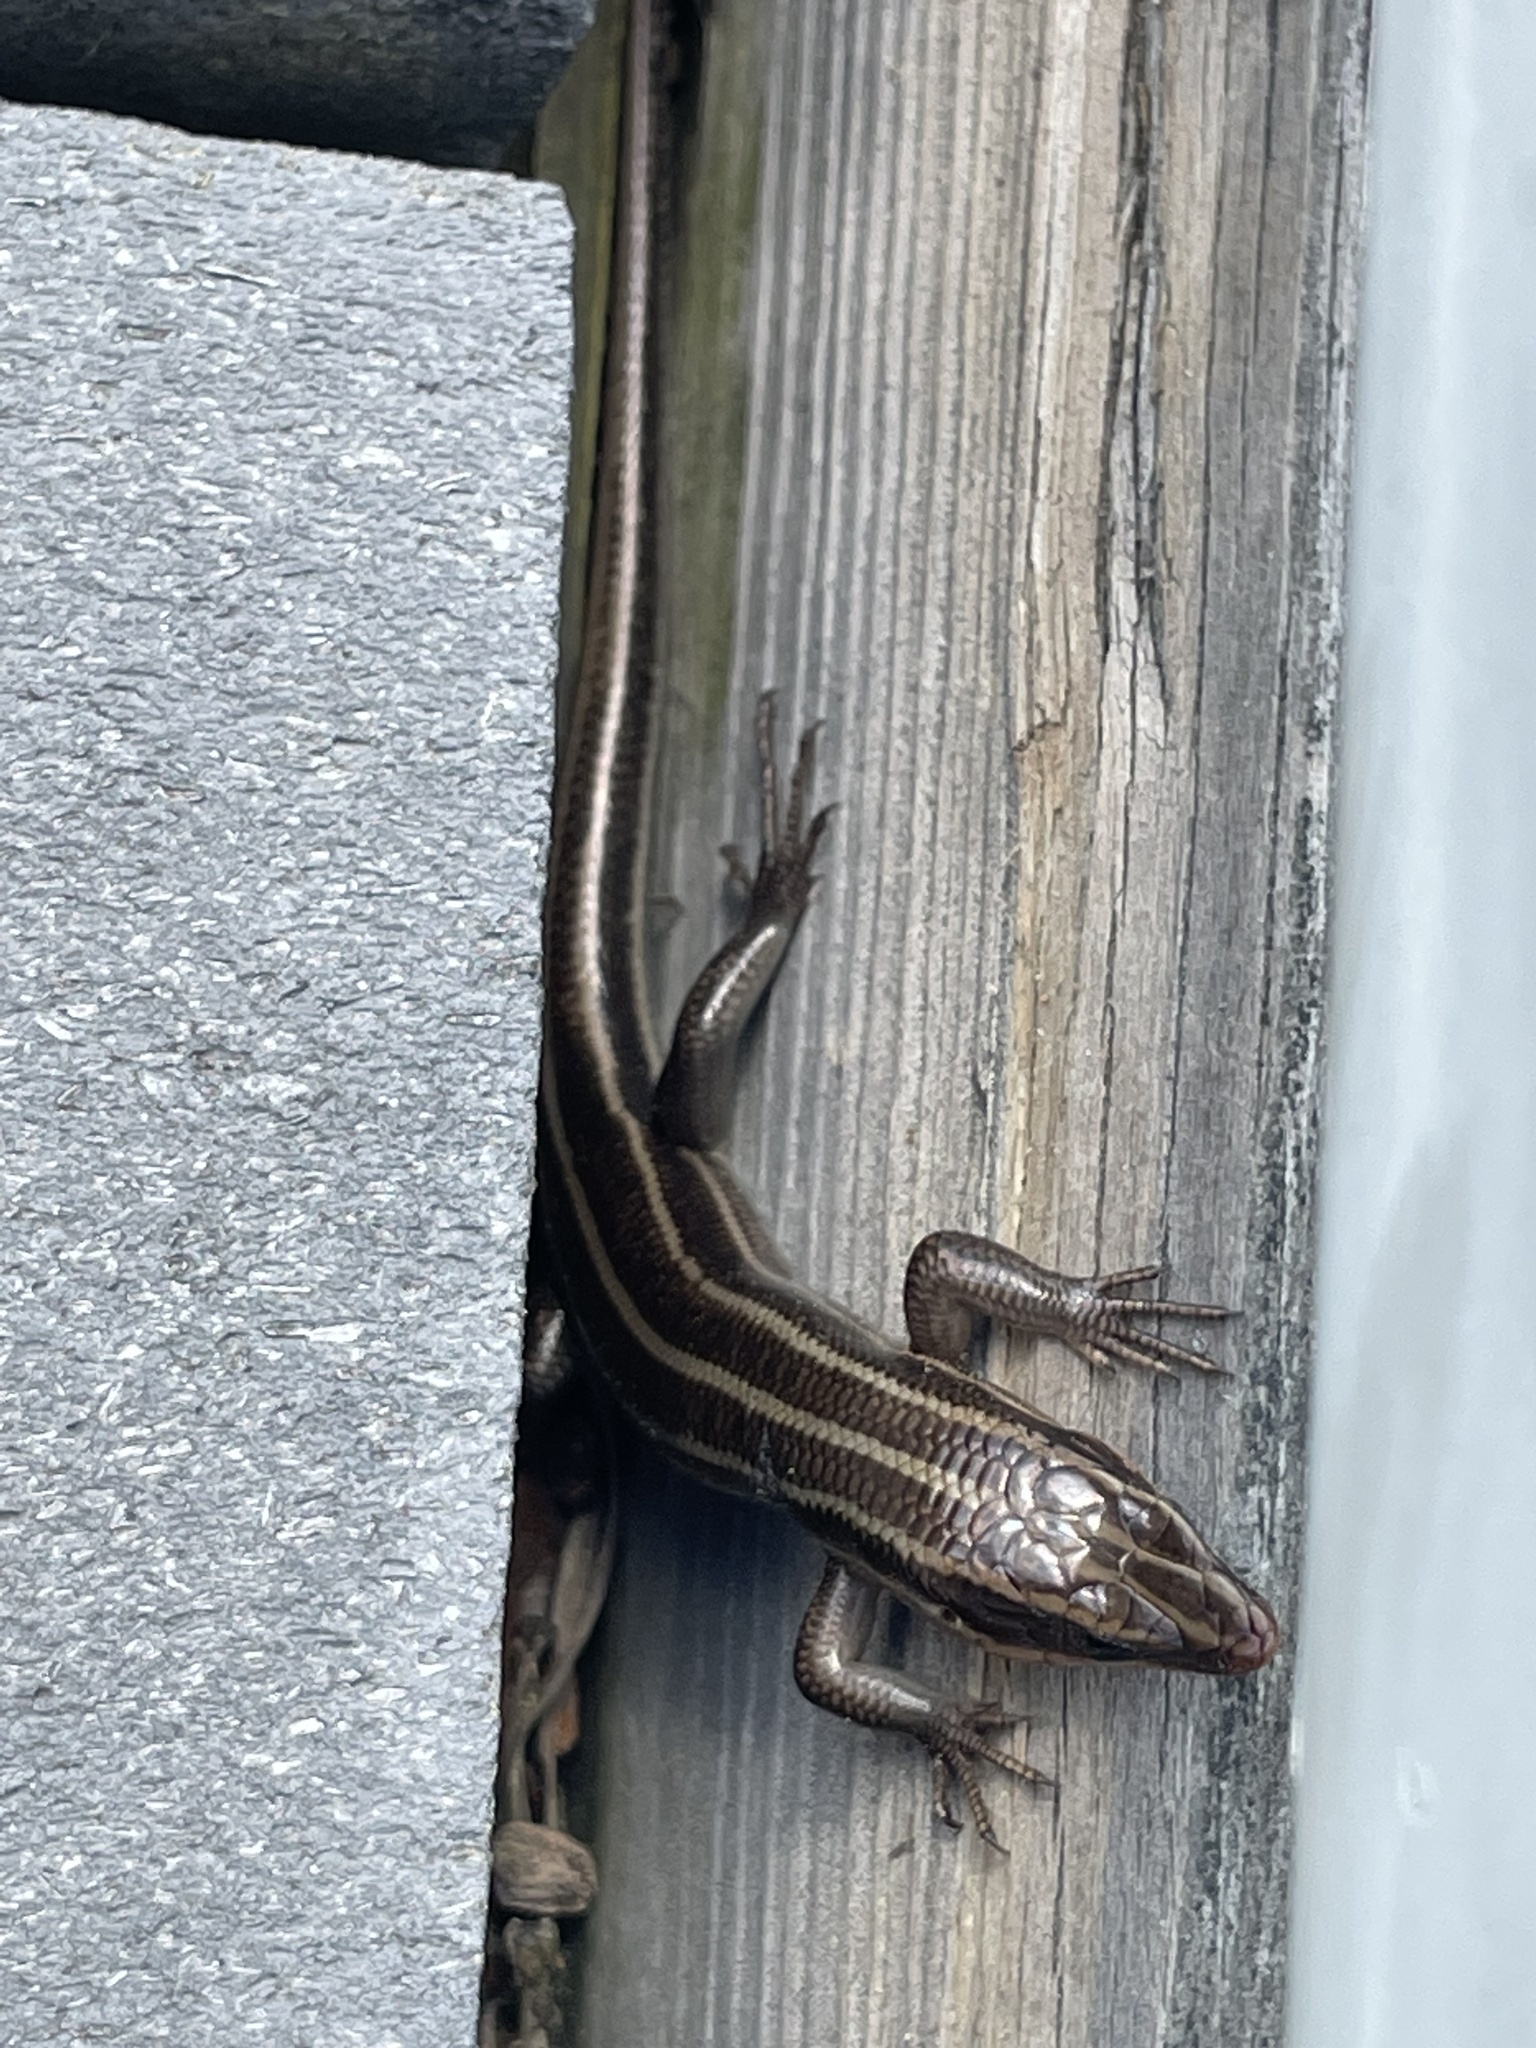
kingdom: Animalia
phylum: Chordata
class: Squamata
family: Scincidae
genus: Plestiodon
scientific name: Plestiodon fasciatus
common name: Five-lined skink
